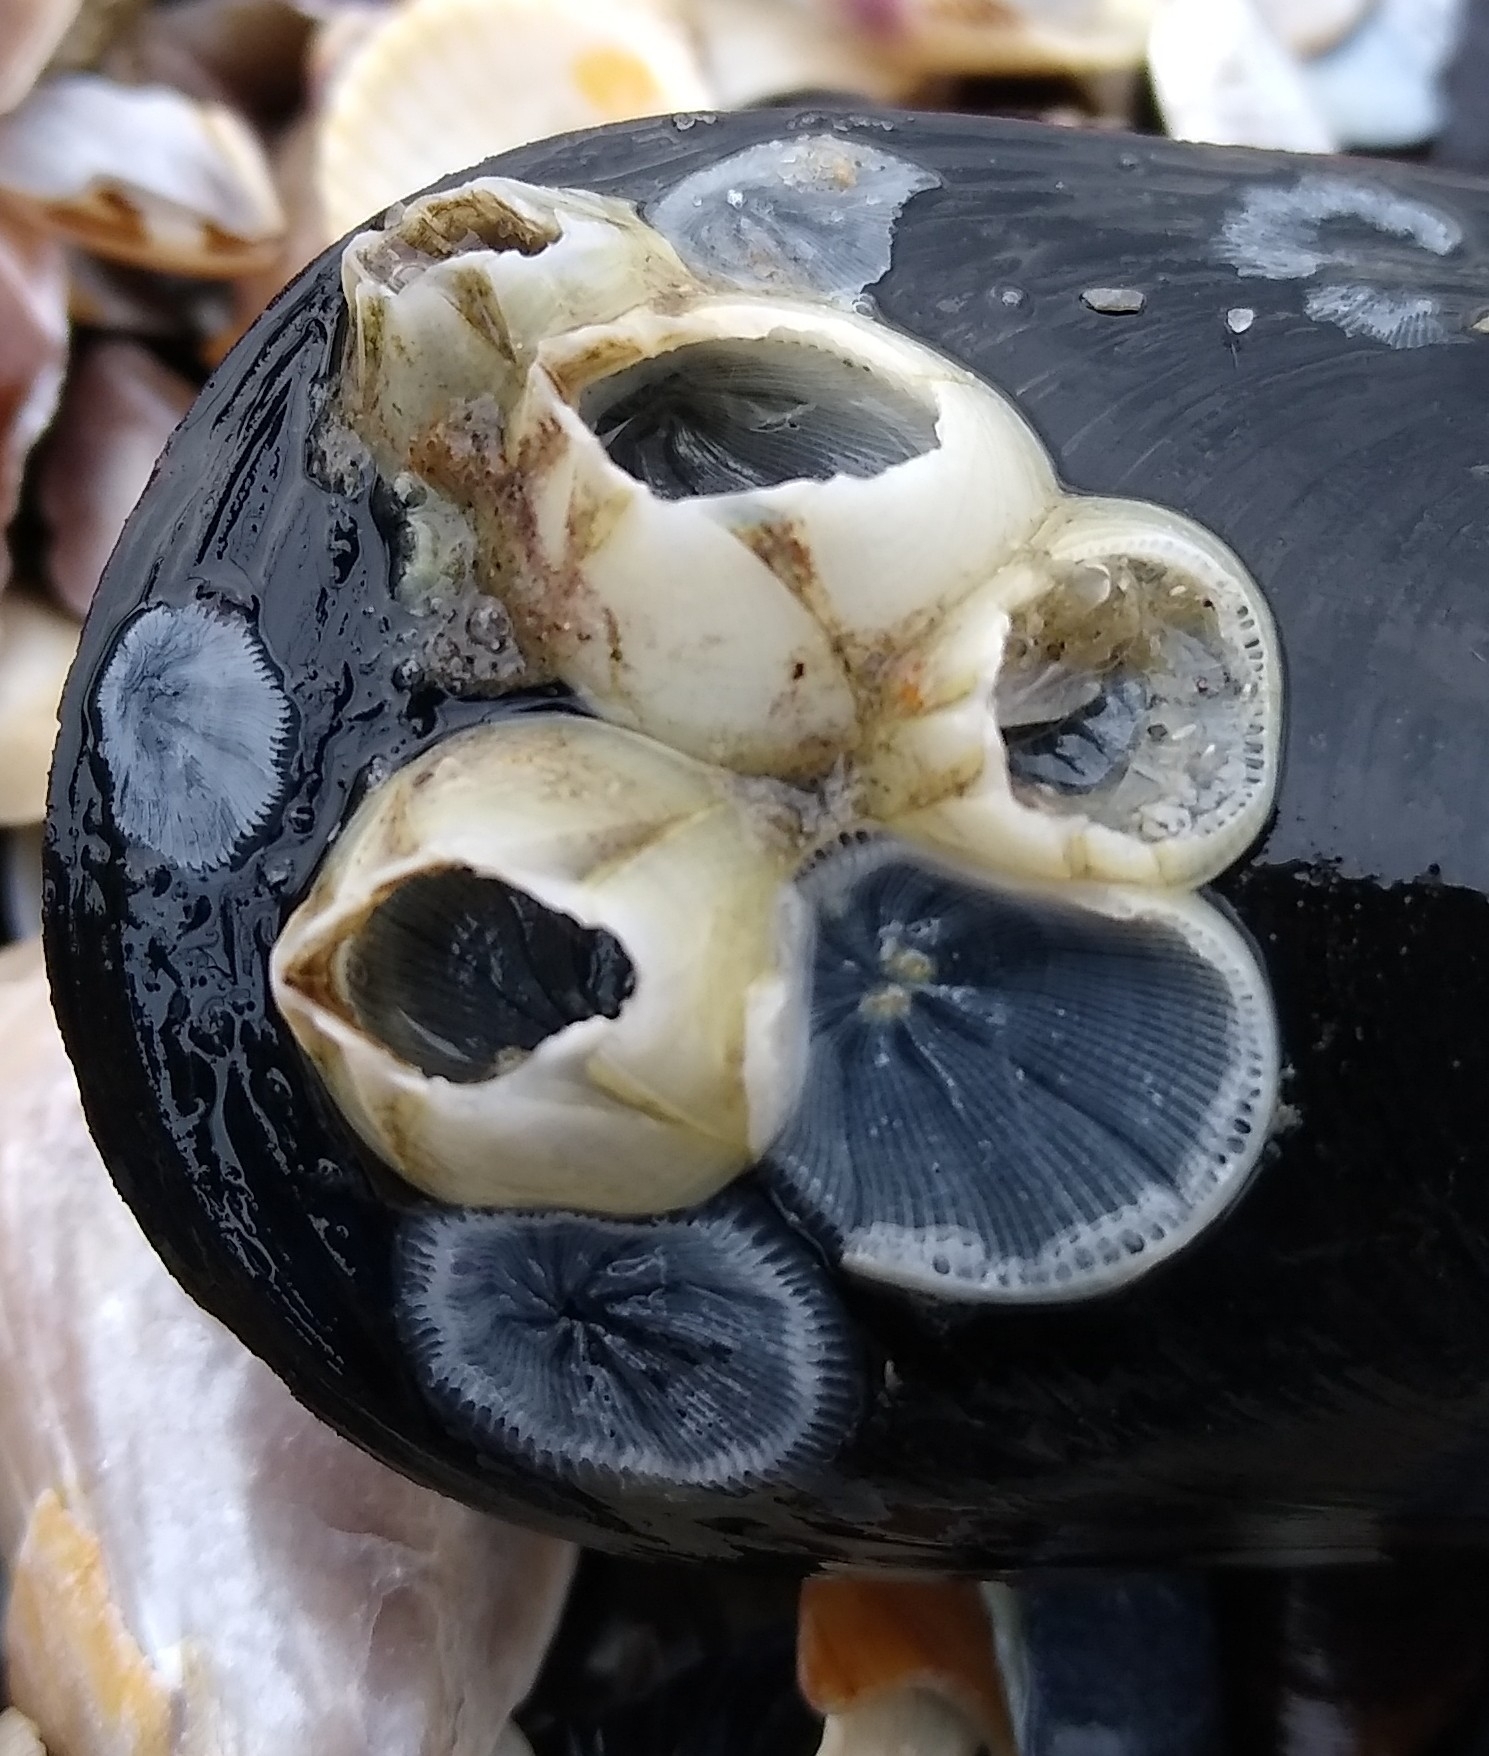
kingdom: Animalia
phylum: Arthropoda
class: Maxillopoda
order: Sessilia
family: Balanidae
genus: Amphibalanus
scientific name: Amphibalanus improvisus
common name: Bay barnacle
